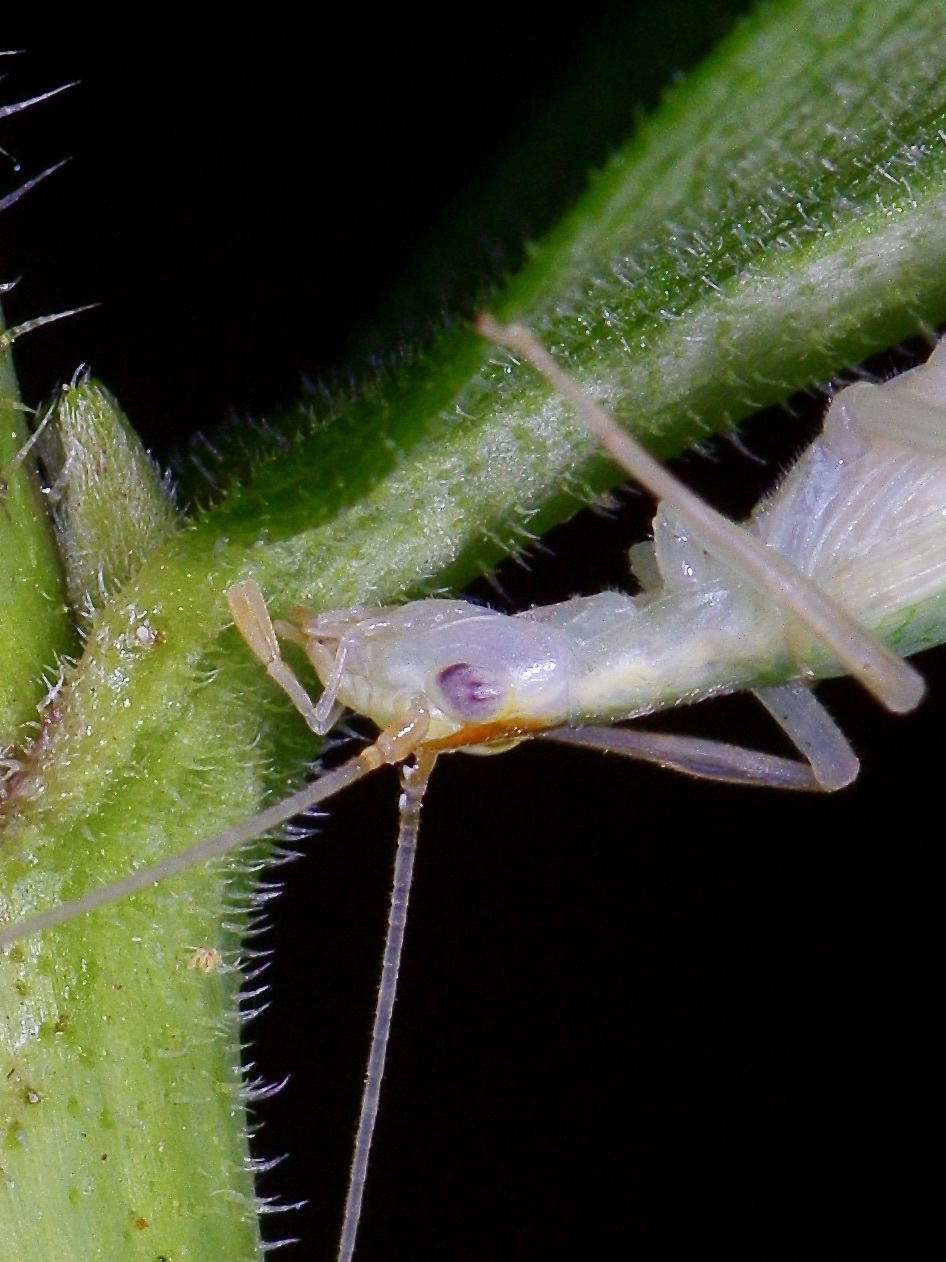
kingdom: Animalia
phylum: Arthropoda
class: Insecta
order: Orthoptera
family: Gryllidae
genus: Oecanthus
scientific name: Oecanthus niveus
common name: Narrow-winged tree cricket
